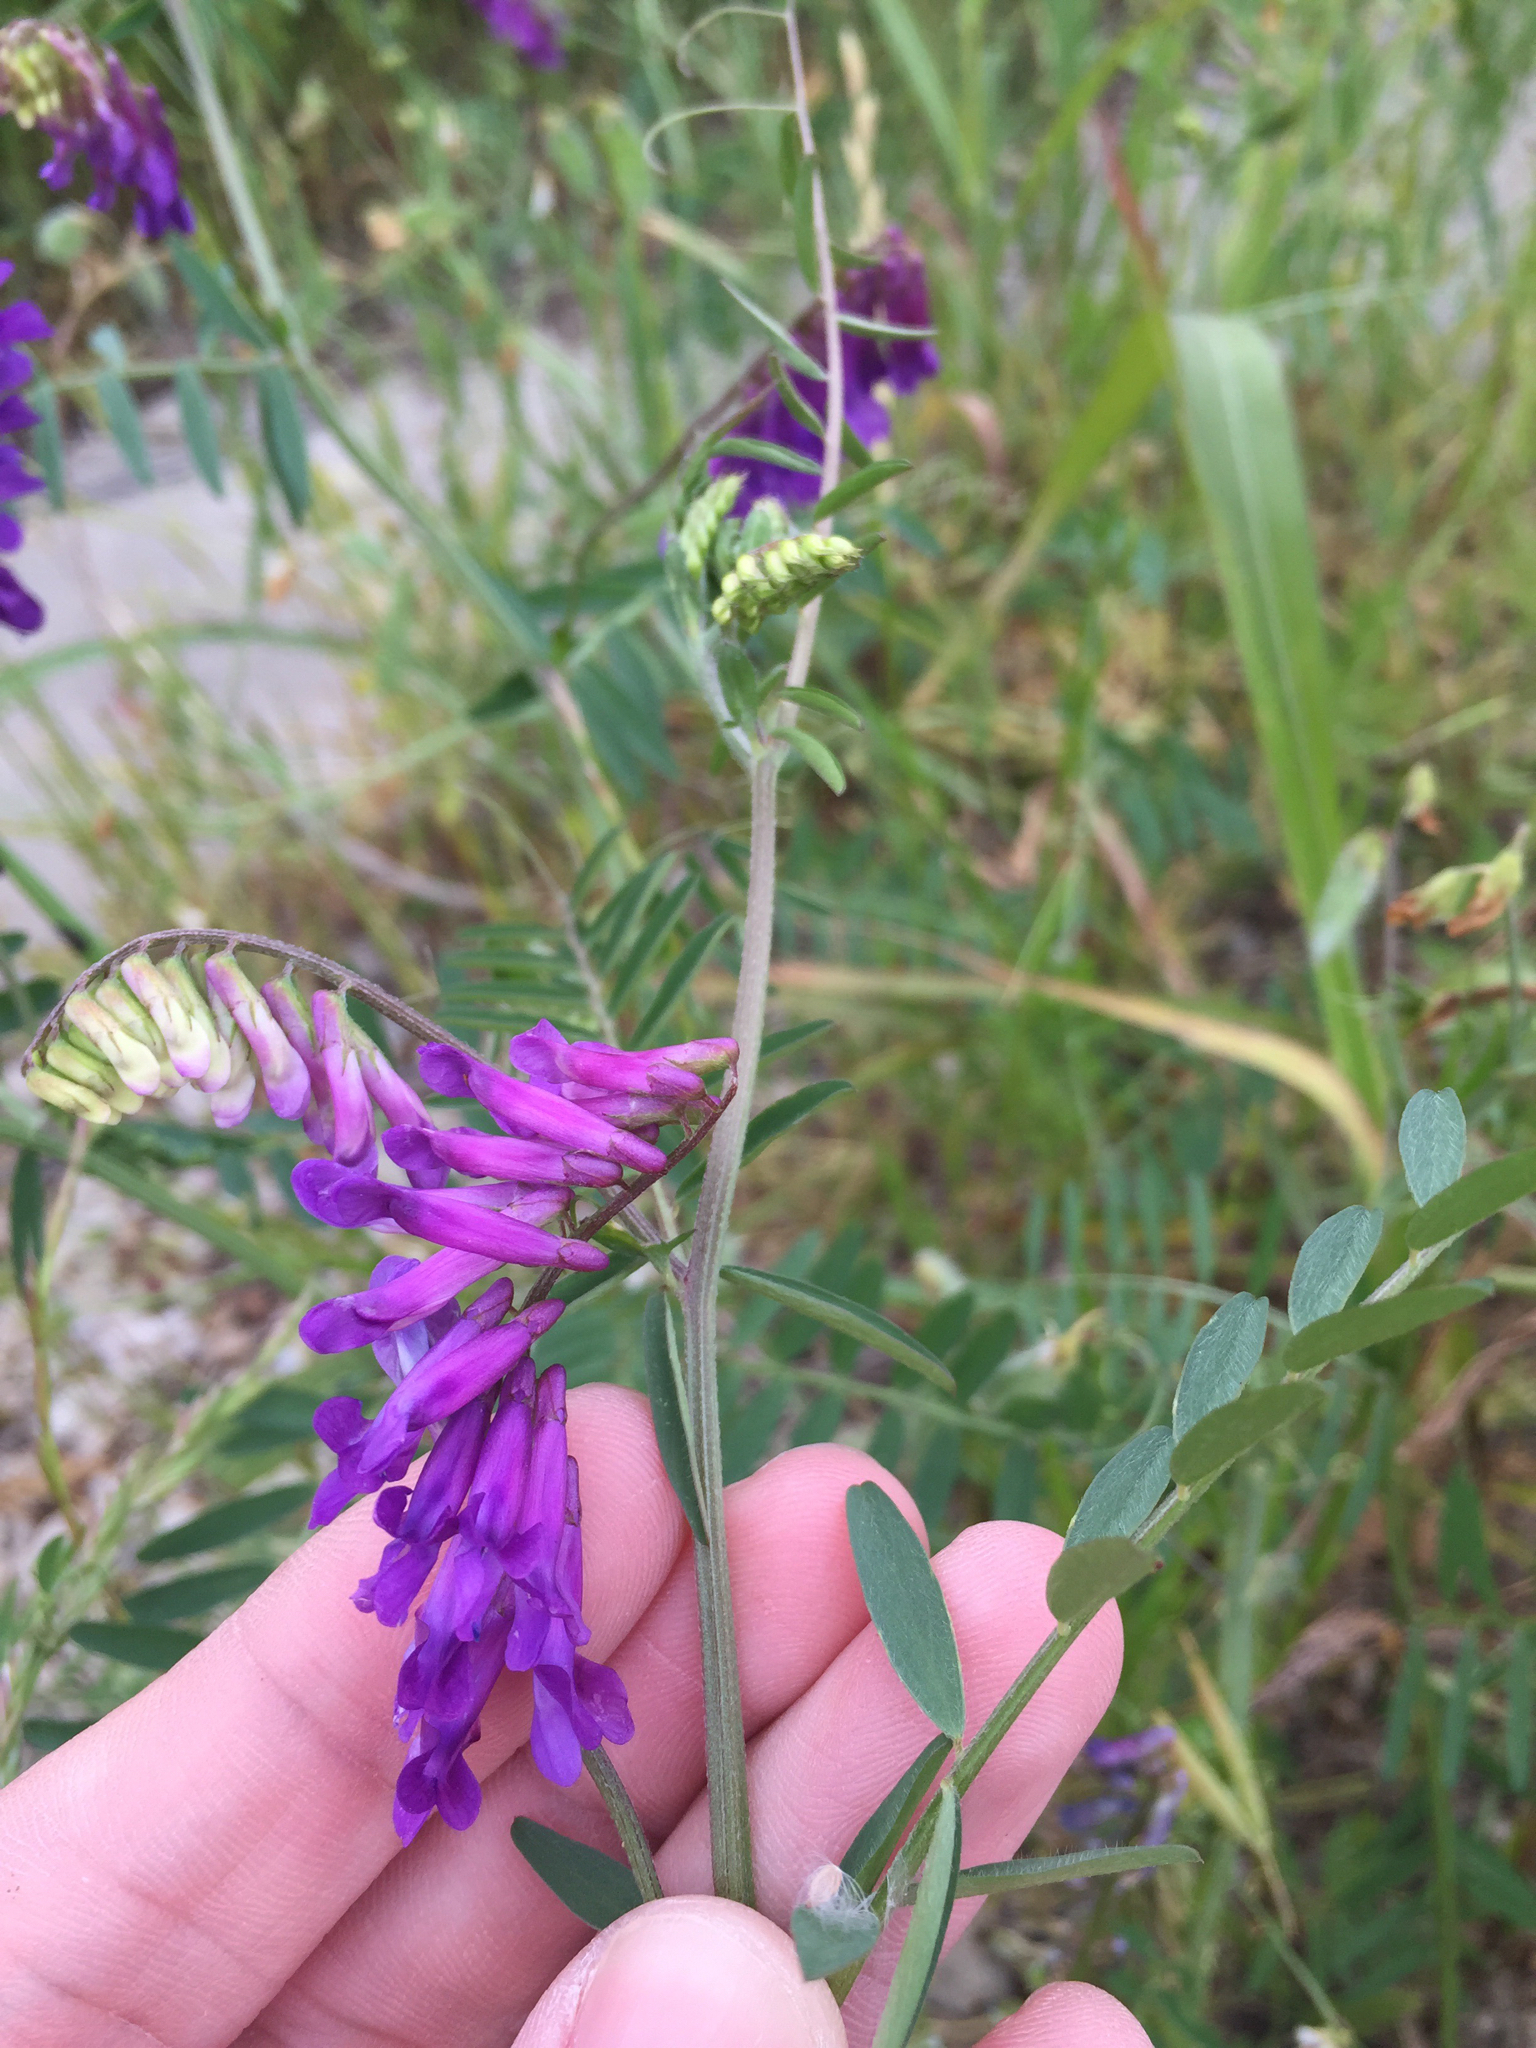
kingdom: Plantae
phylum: Tracheophyta
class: Magnoliopsida
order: Fabales
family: Fabaceae
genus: Vicia
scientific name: Vicia villosa
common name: Fodder vetch
